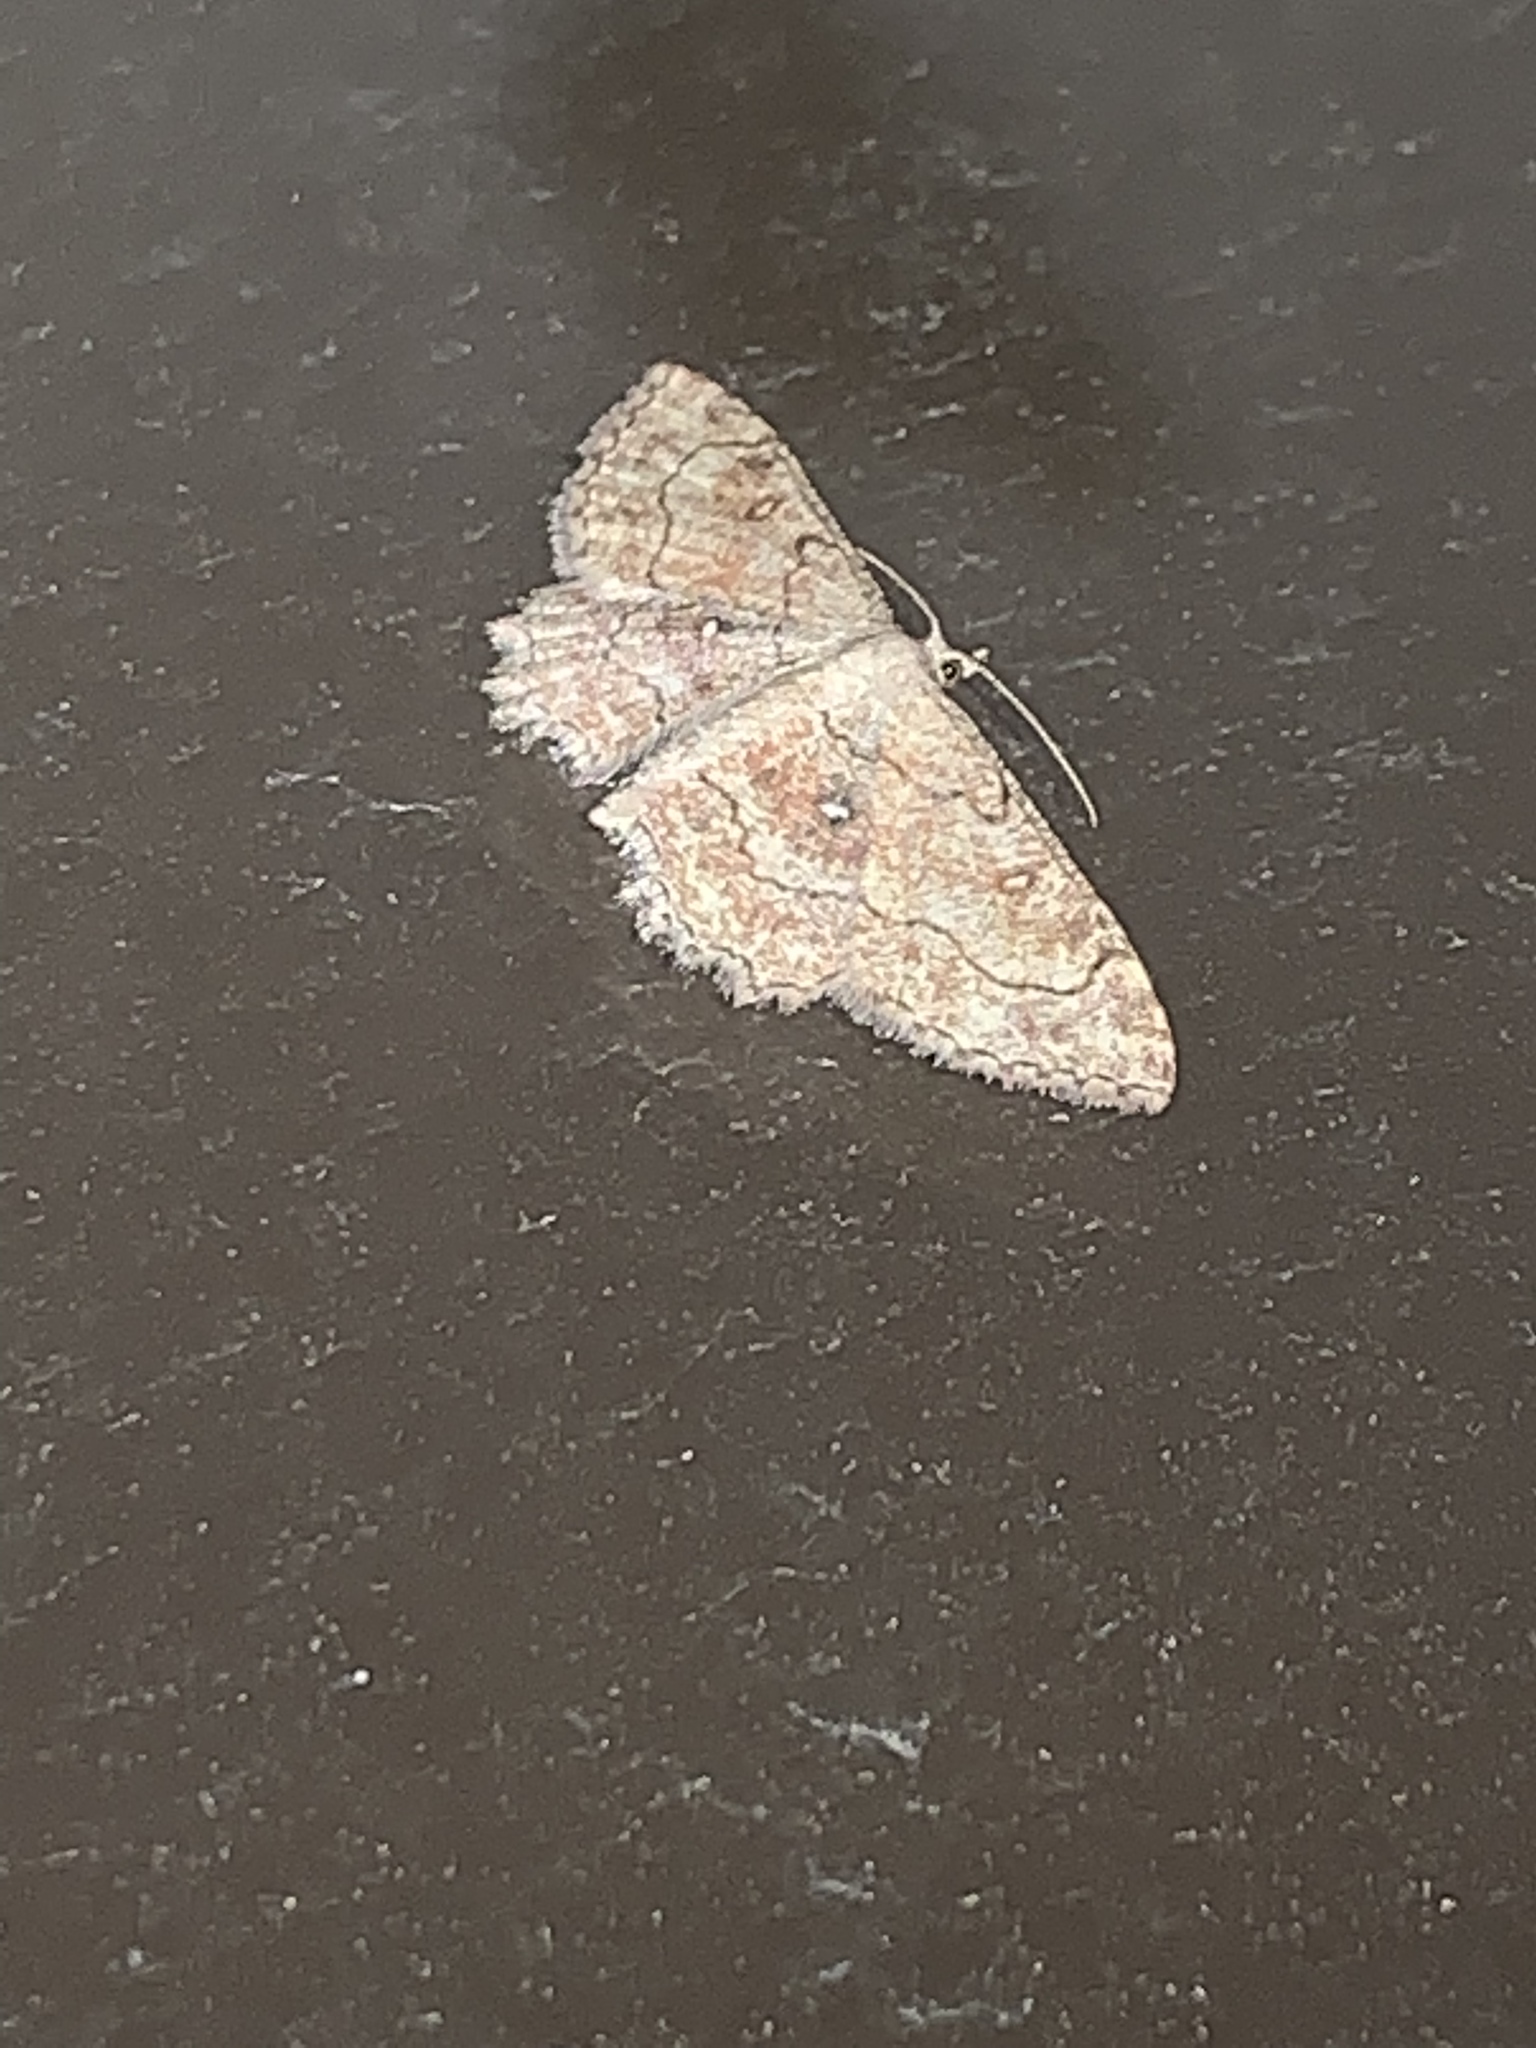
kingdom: Animalia
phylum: Arthropoda
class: Insecta
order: Lepidoptera
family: Geometridae
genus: Cyclophora
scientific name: Cyclophora nanaria
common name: Cankerworm
